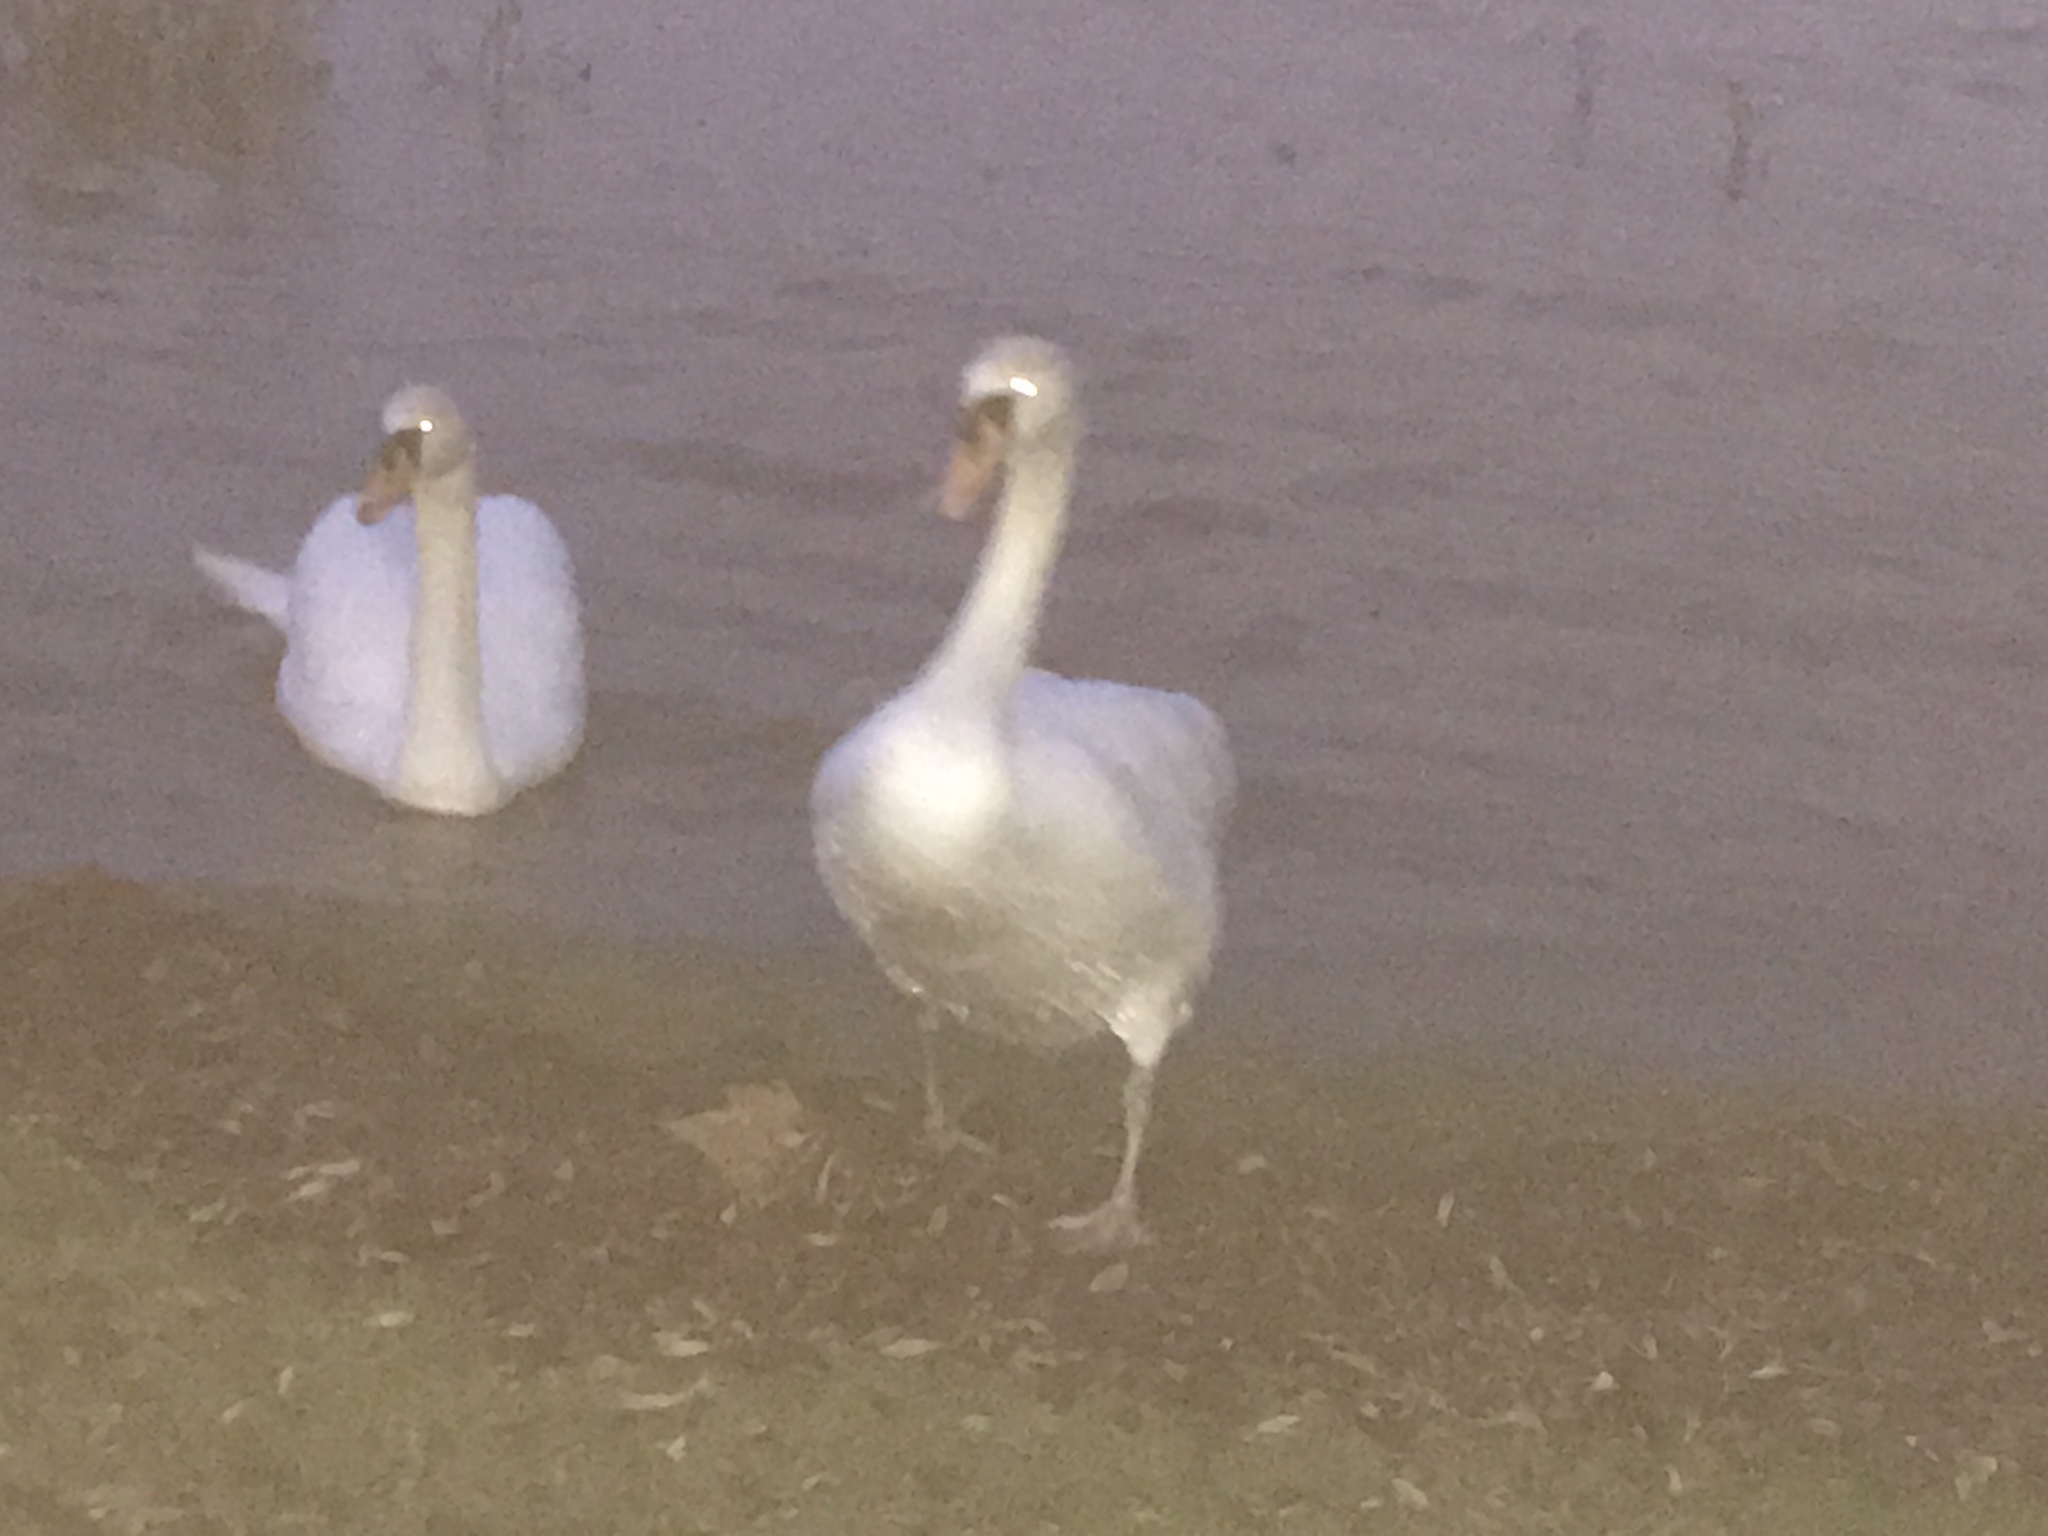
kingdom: Animalia
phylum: Chordata
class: Aves
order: Anseriformes
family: Anatidae
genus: Cygnus
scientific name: Cygnus olor
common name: Mute swan
